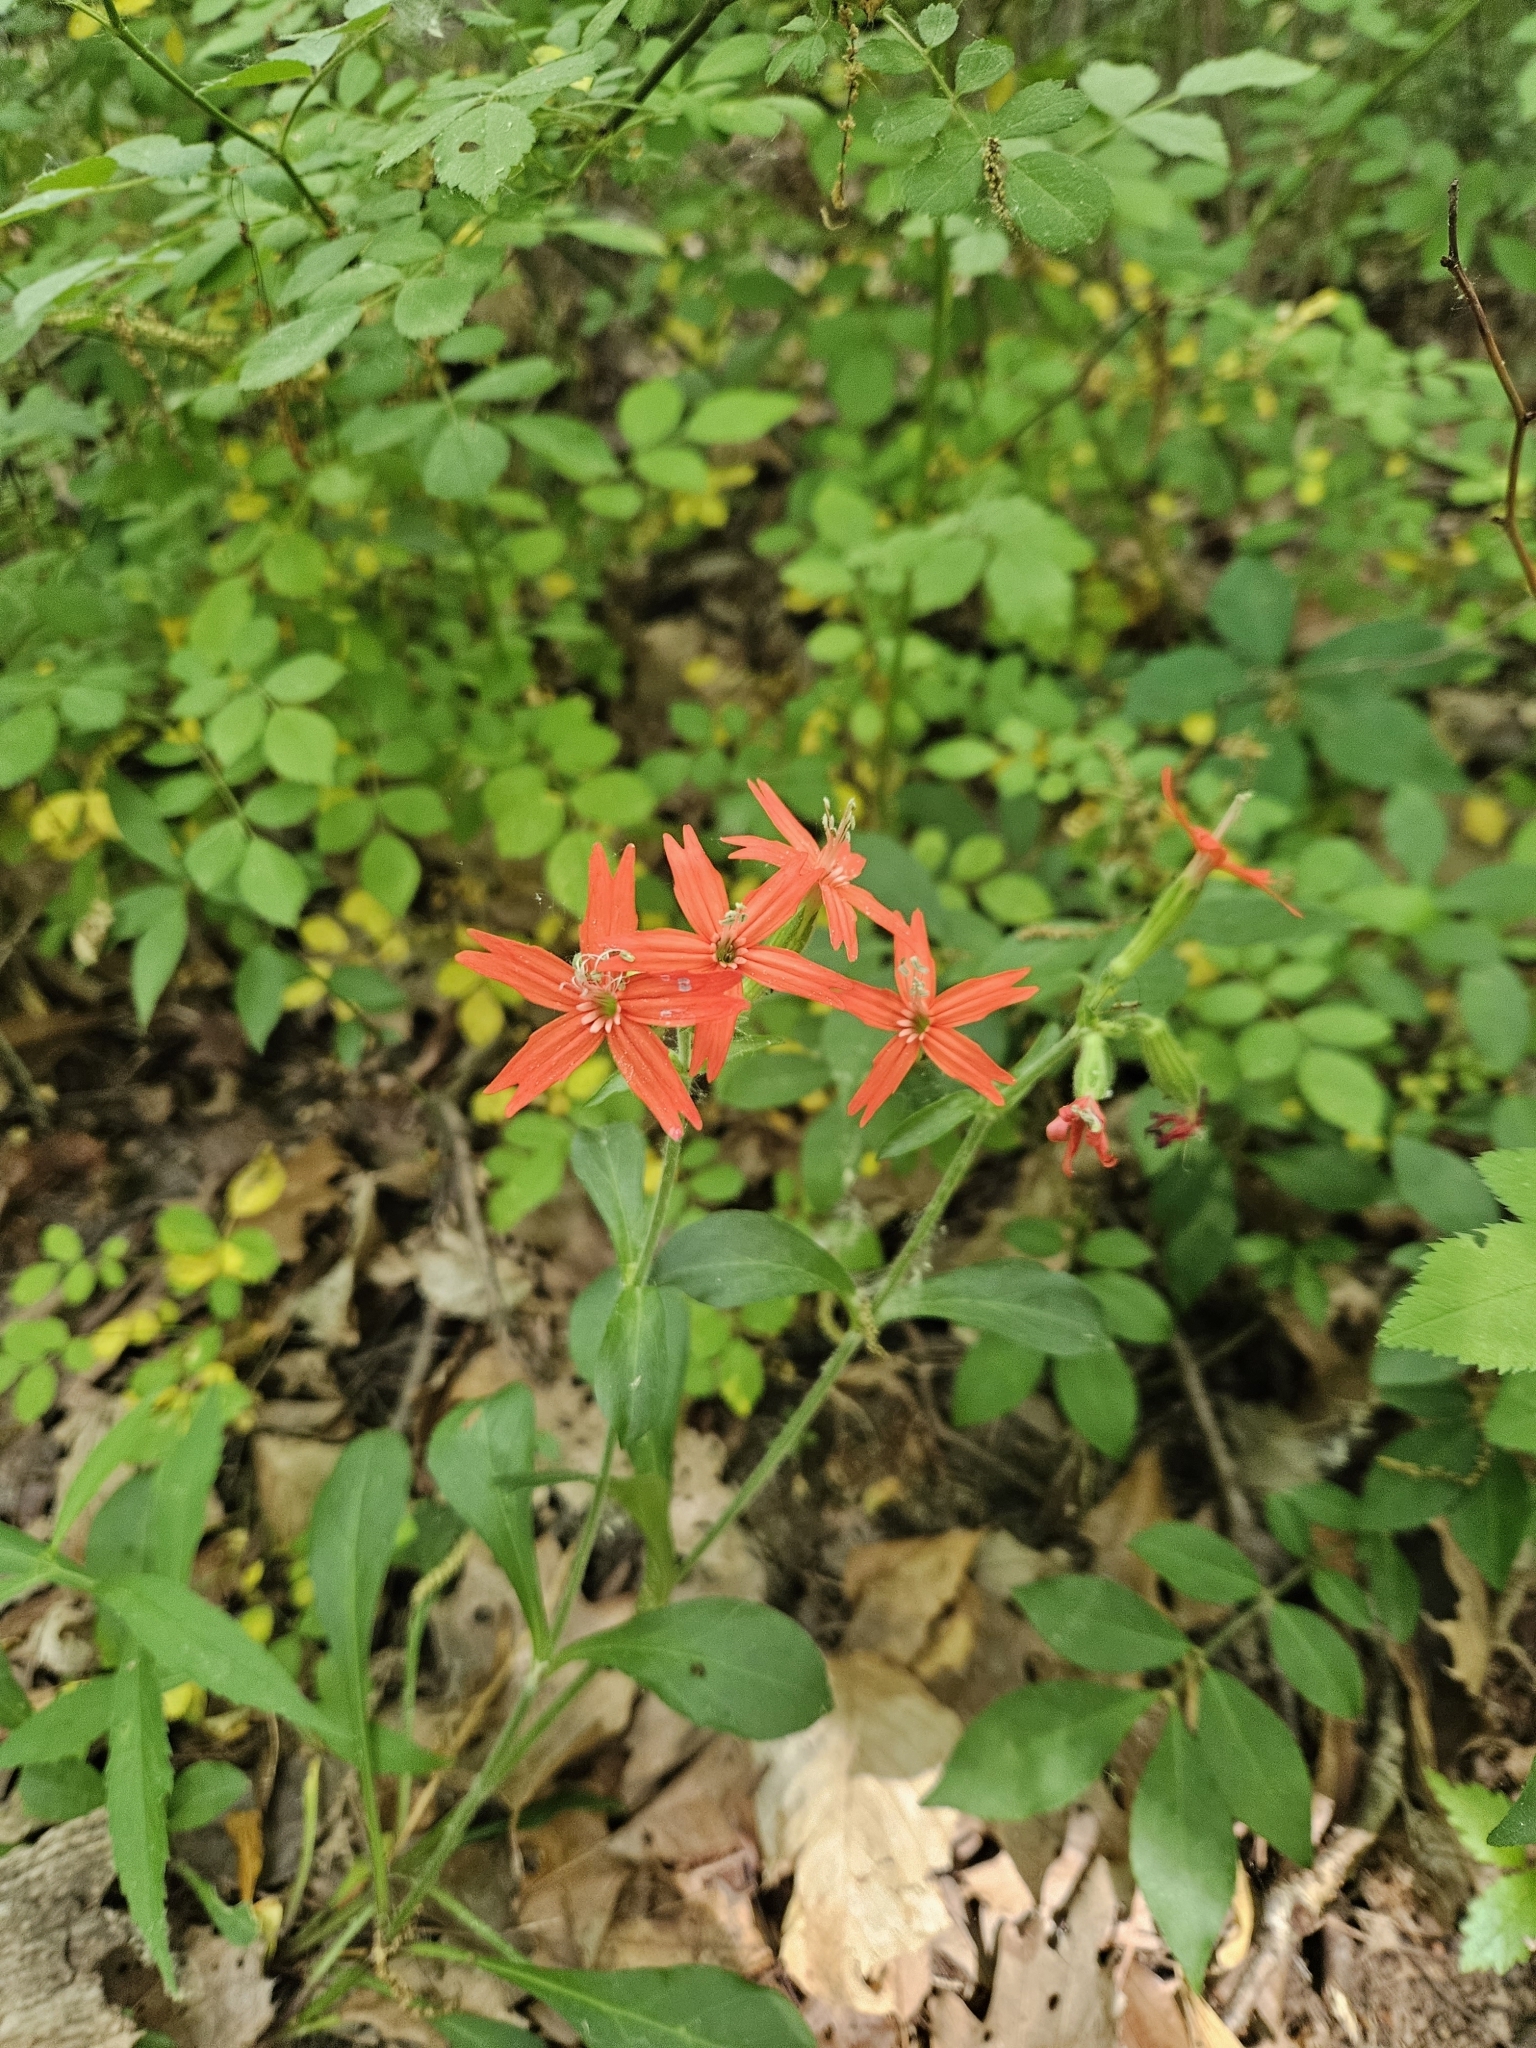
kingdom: Plantae
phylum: Tracheophyta
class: Magnoliopsida
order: Caryophyllales
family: Caryophyllaceae
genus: Silene
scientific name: Silene virginica
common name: Fire-pink
